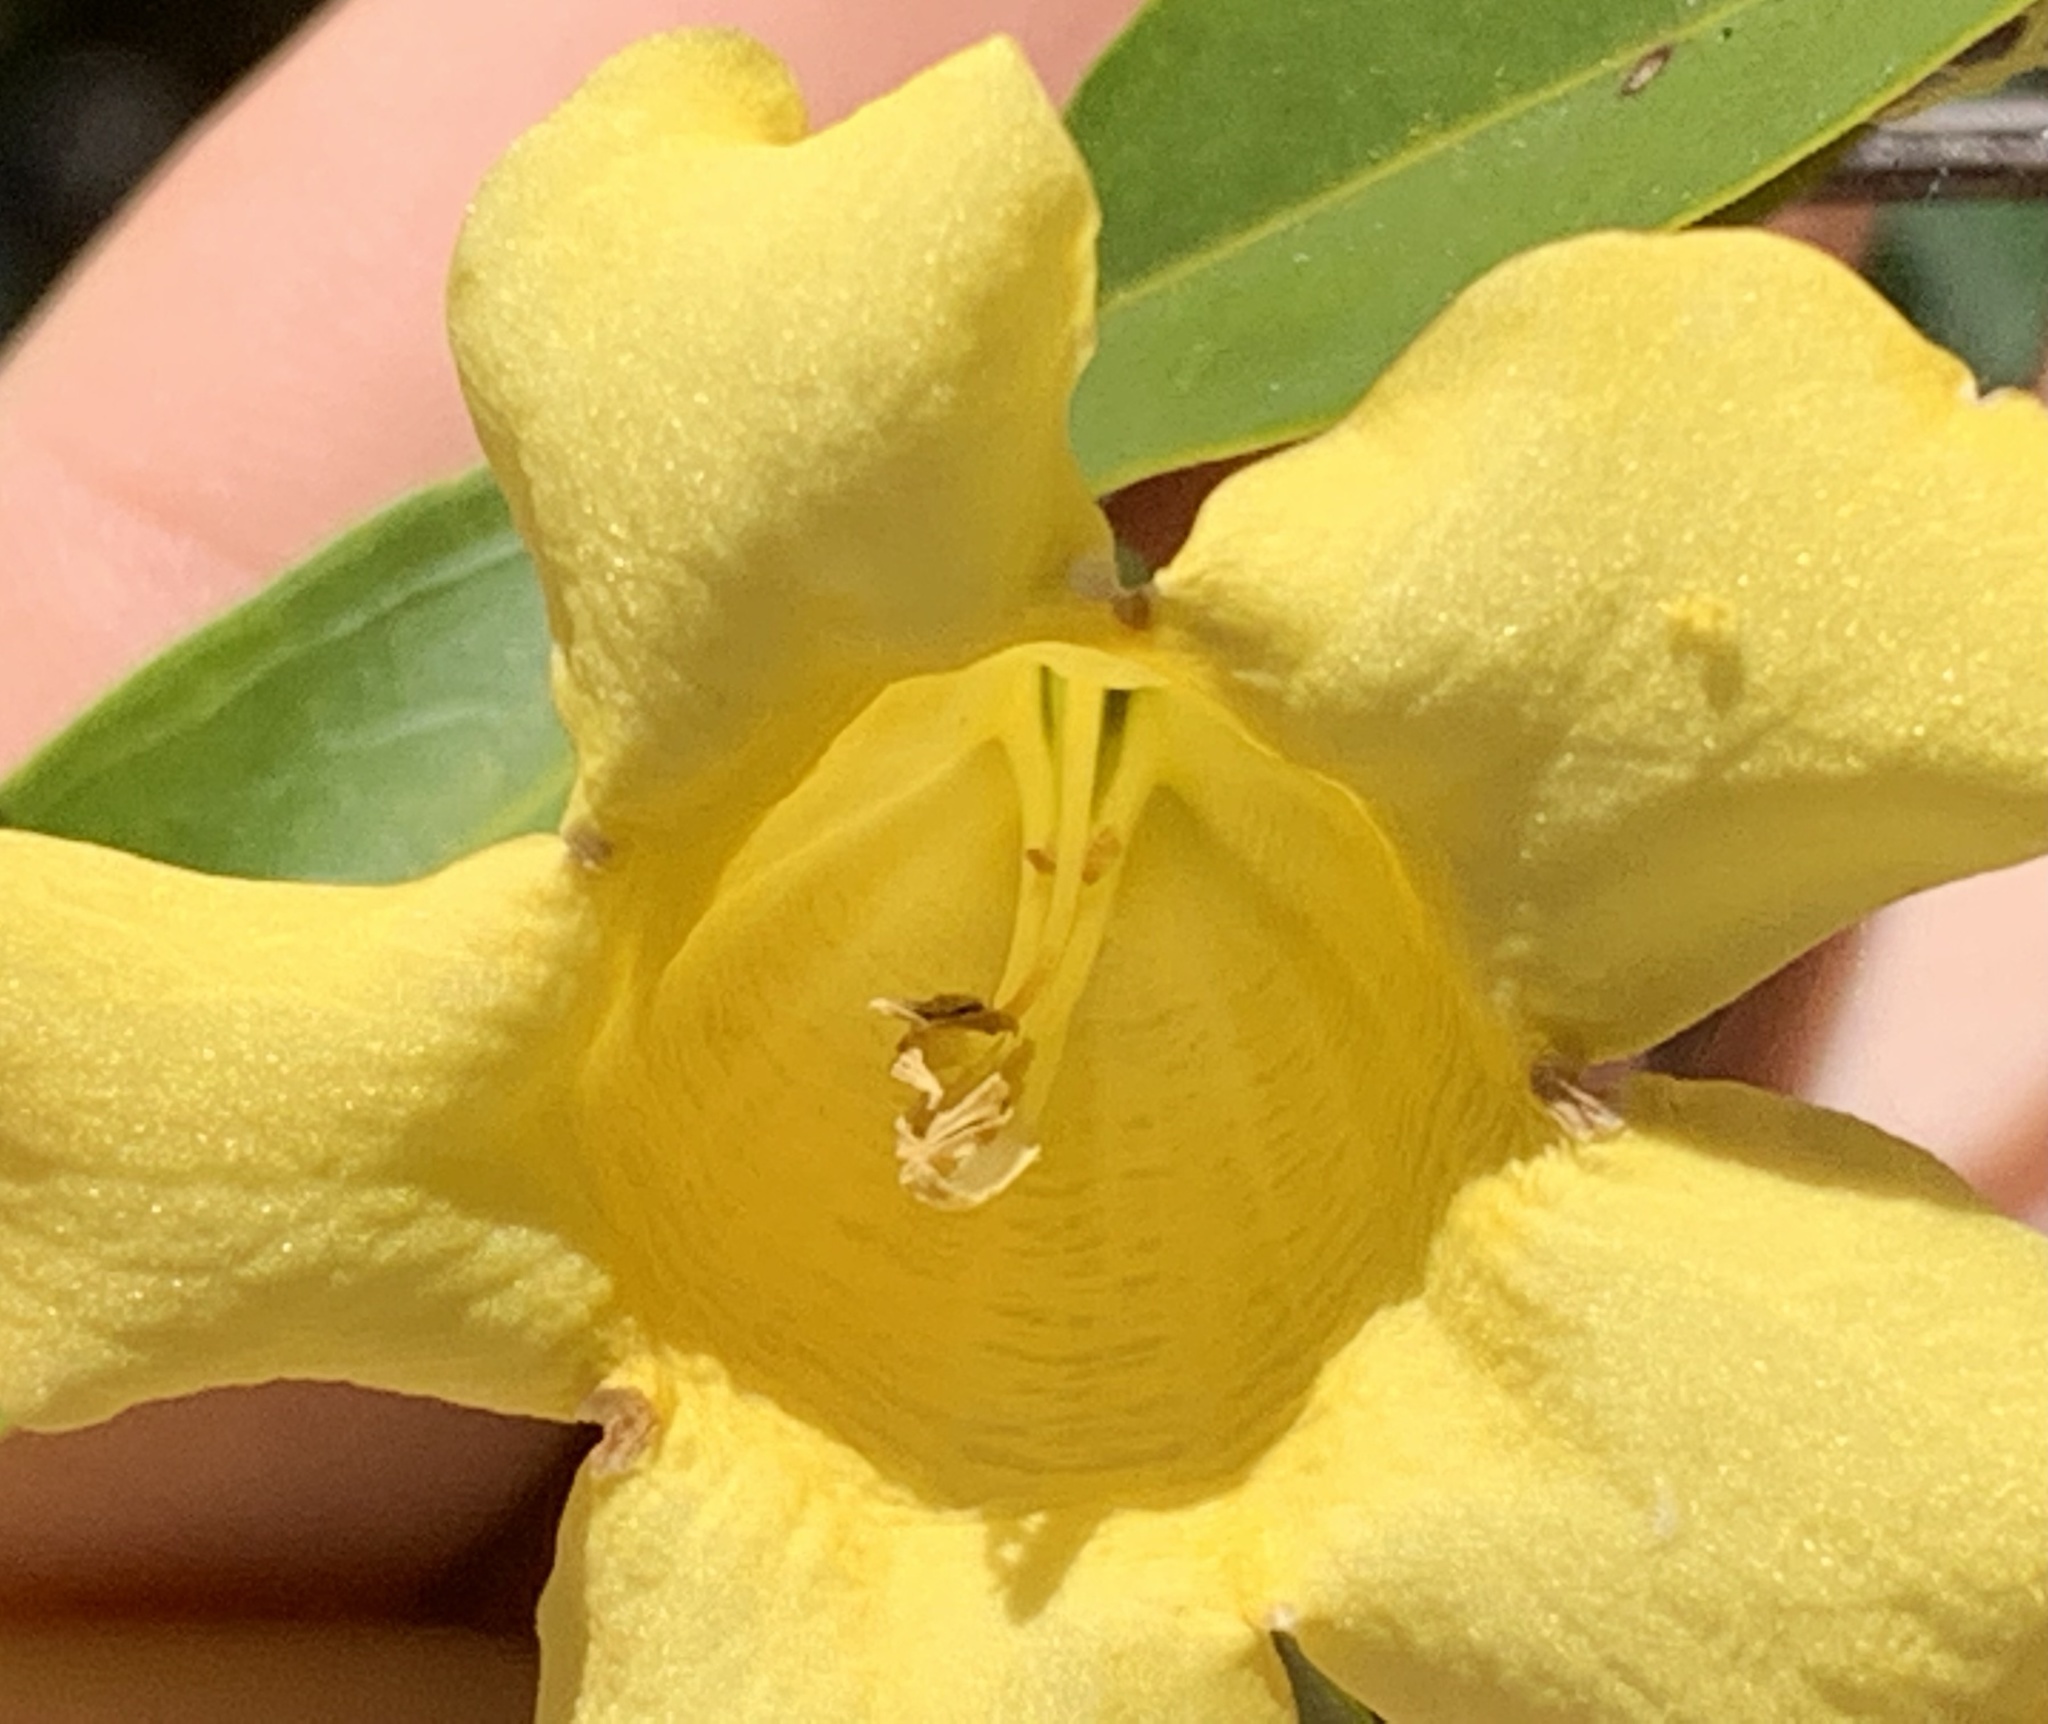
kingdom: Plantae
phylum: Tracheophyta
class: Magnoliopsida
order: Gentianales
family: Gelsemiaceae
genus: Gelsemium
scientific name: Gelsemium sempervirens
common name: Carolina-jasmine
